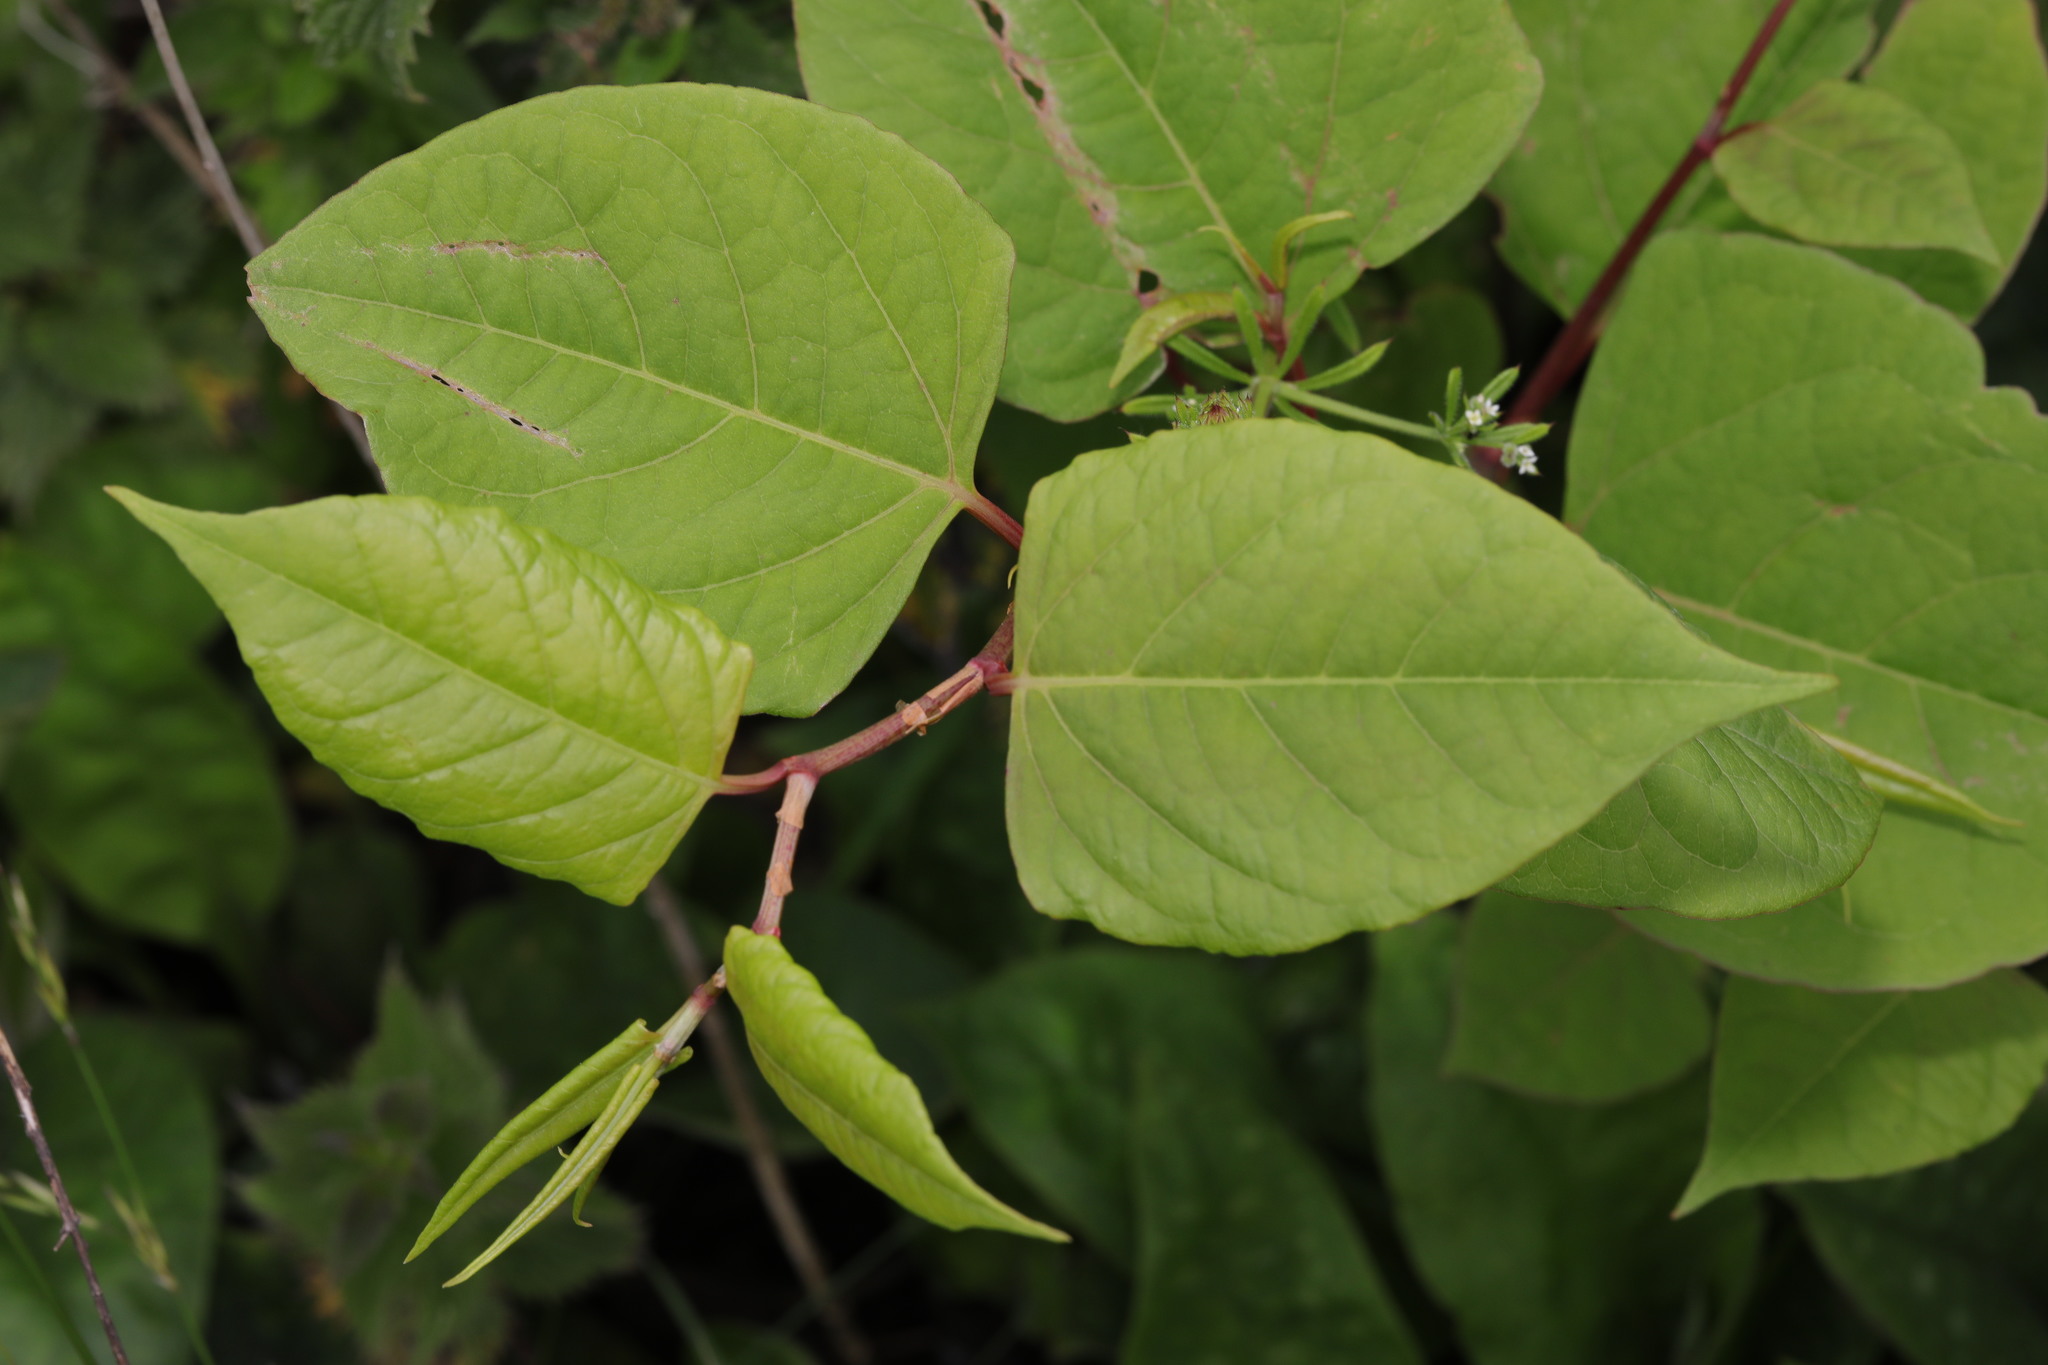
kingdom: Plantae
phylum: Tracheophyta
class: Magnoliopsida
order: Caryophyllales
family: Polygonaceae
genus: Reynoutria
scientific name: Reynoutria japonica
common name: Japanese knotweed
